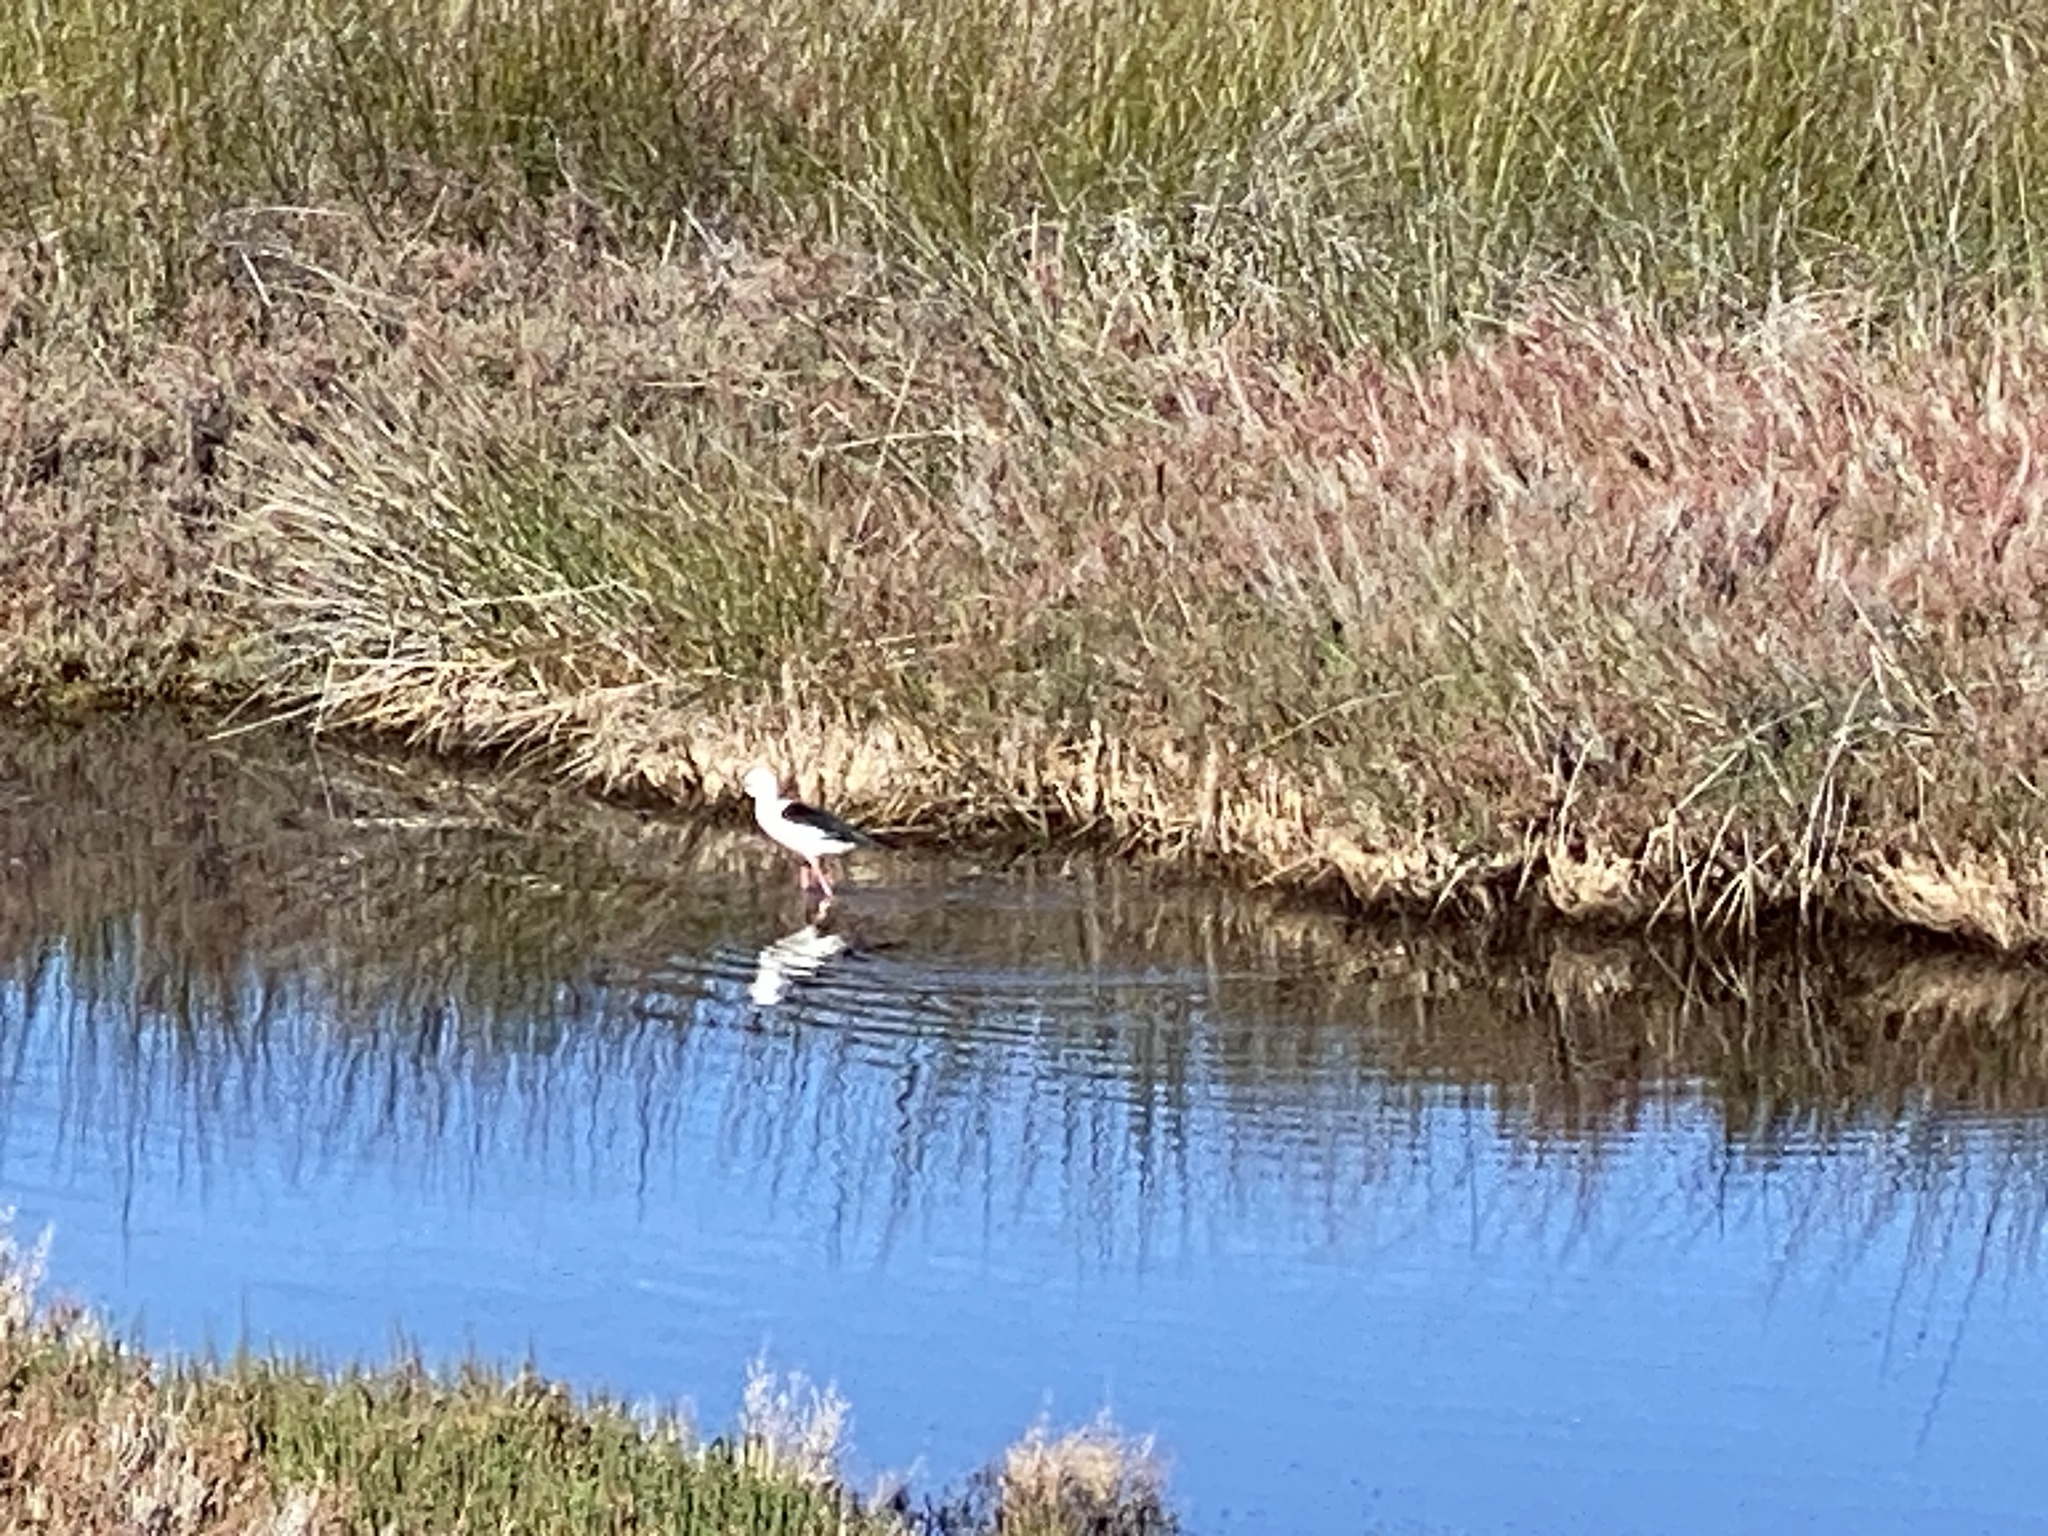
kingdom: Animalia
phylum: Chordata
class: Aves
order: Charadriiformes
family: Recurvirostridae
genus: Himantopus
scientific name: Himantopus himantopus
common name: Black-winged stilt
